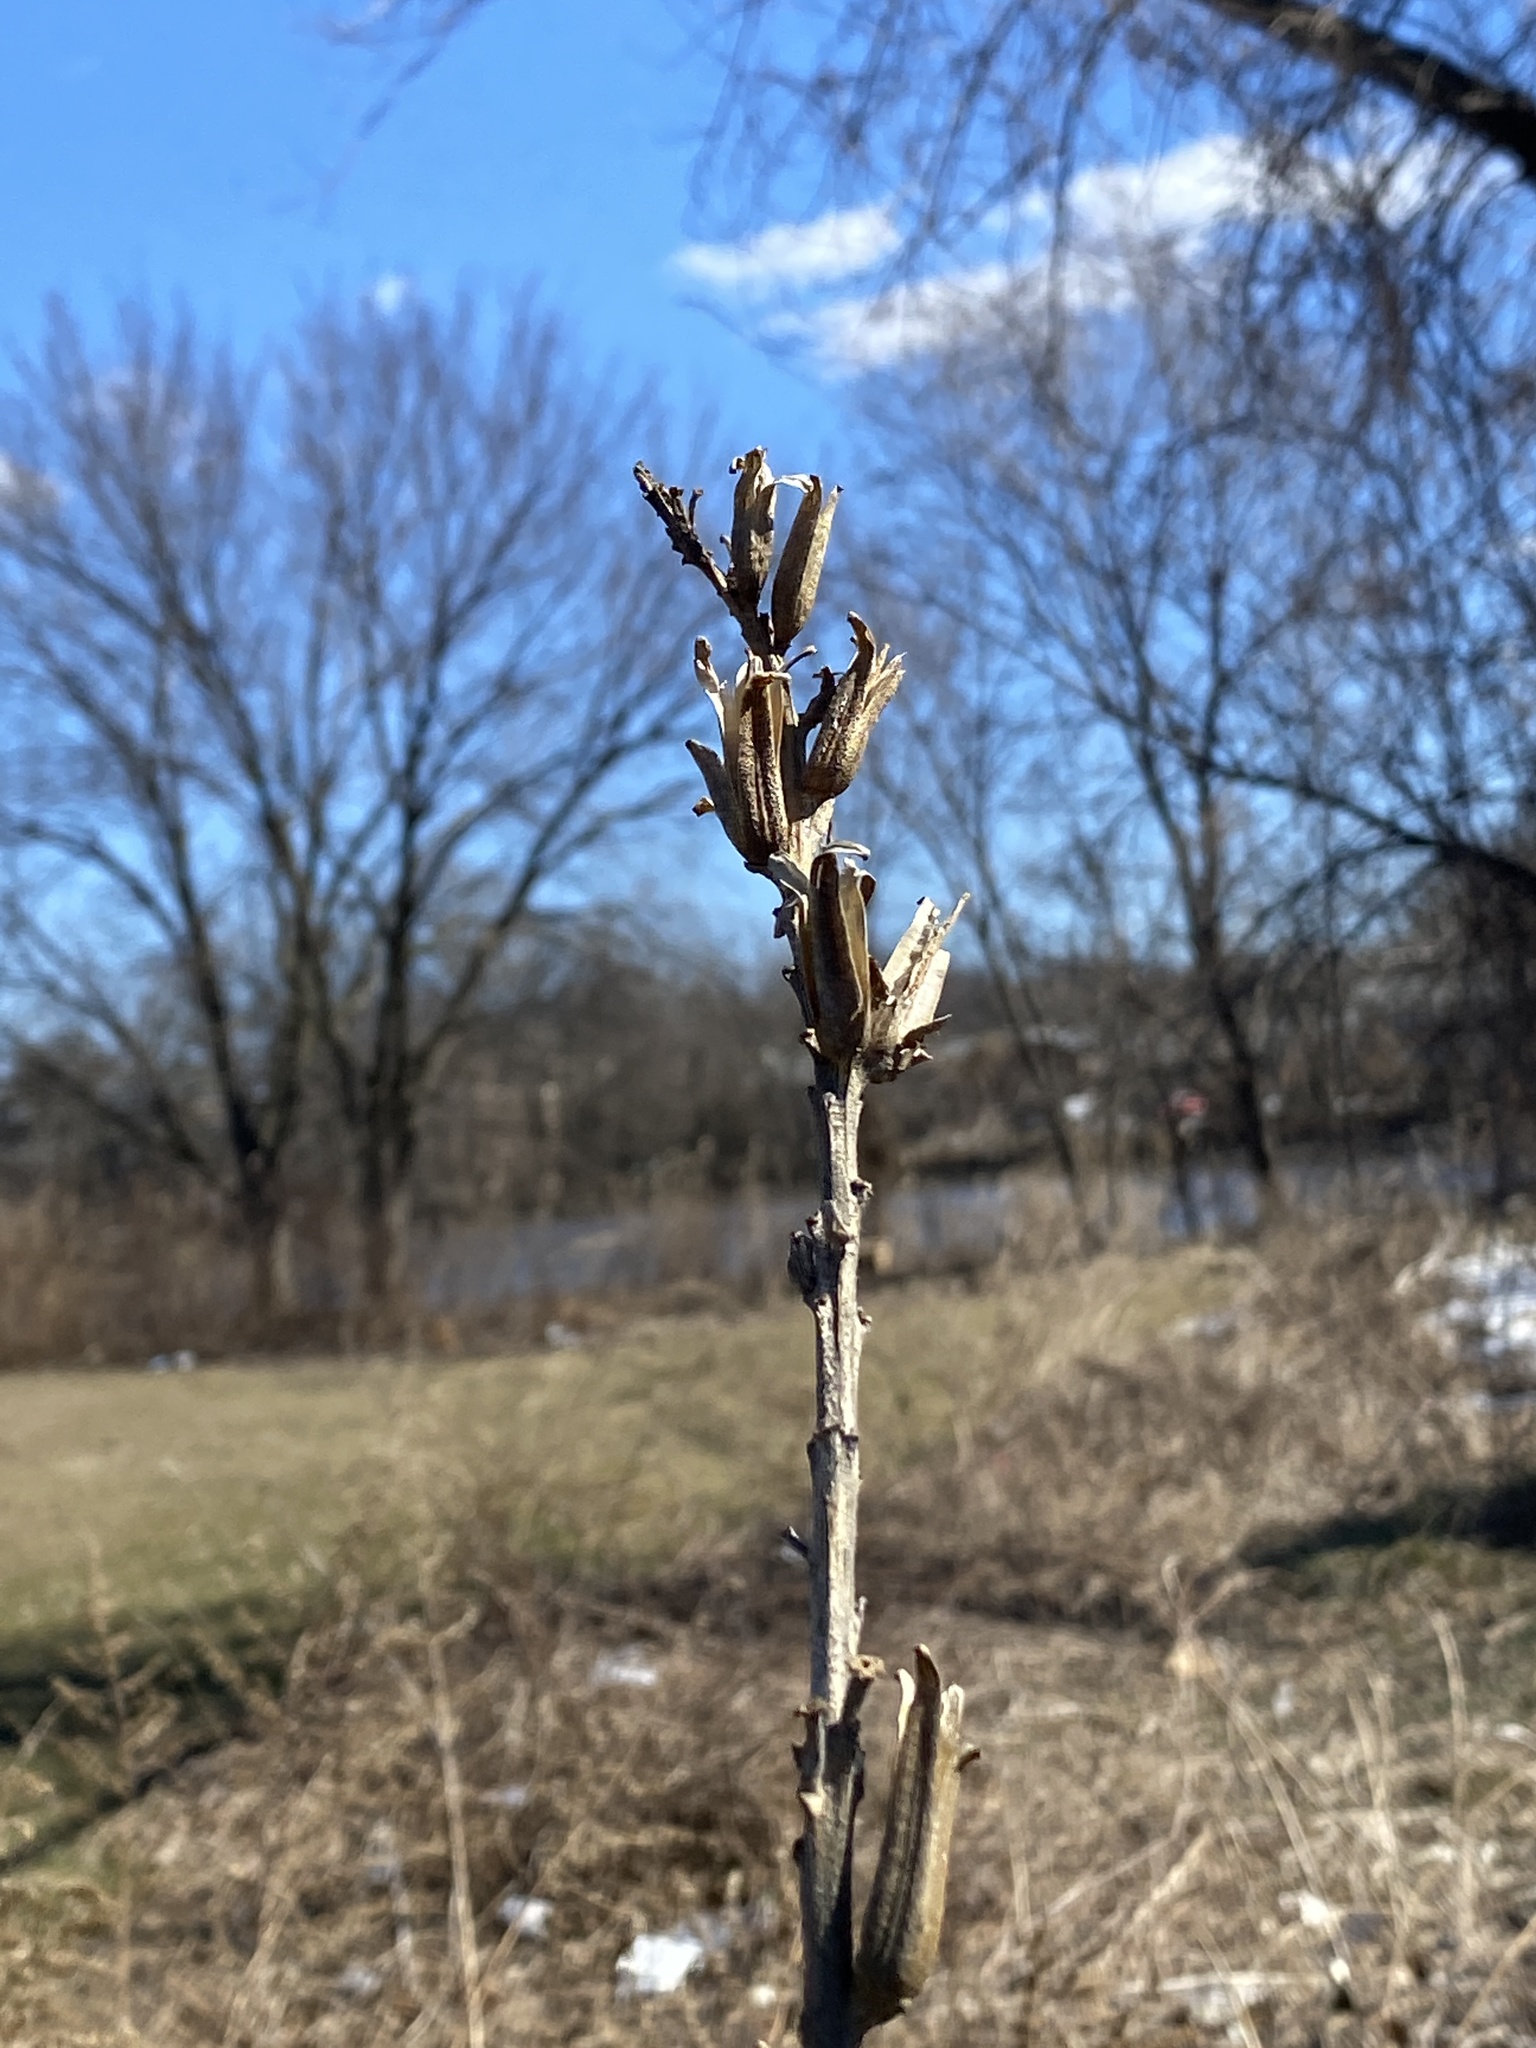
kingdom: Plantae
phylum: Tracheophyta
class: Magnoliopsida
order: Myrtales
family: Onagraceae
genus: Oenothera
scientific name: Oenothera biennis
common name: Common evening-primrose
